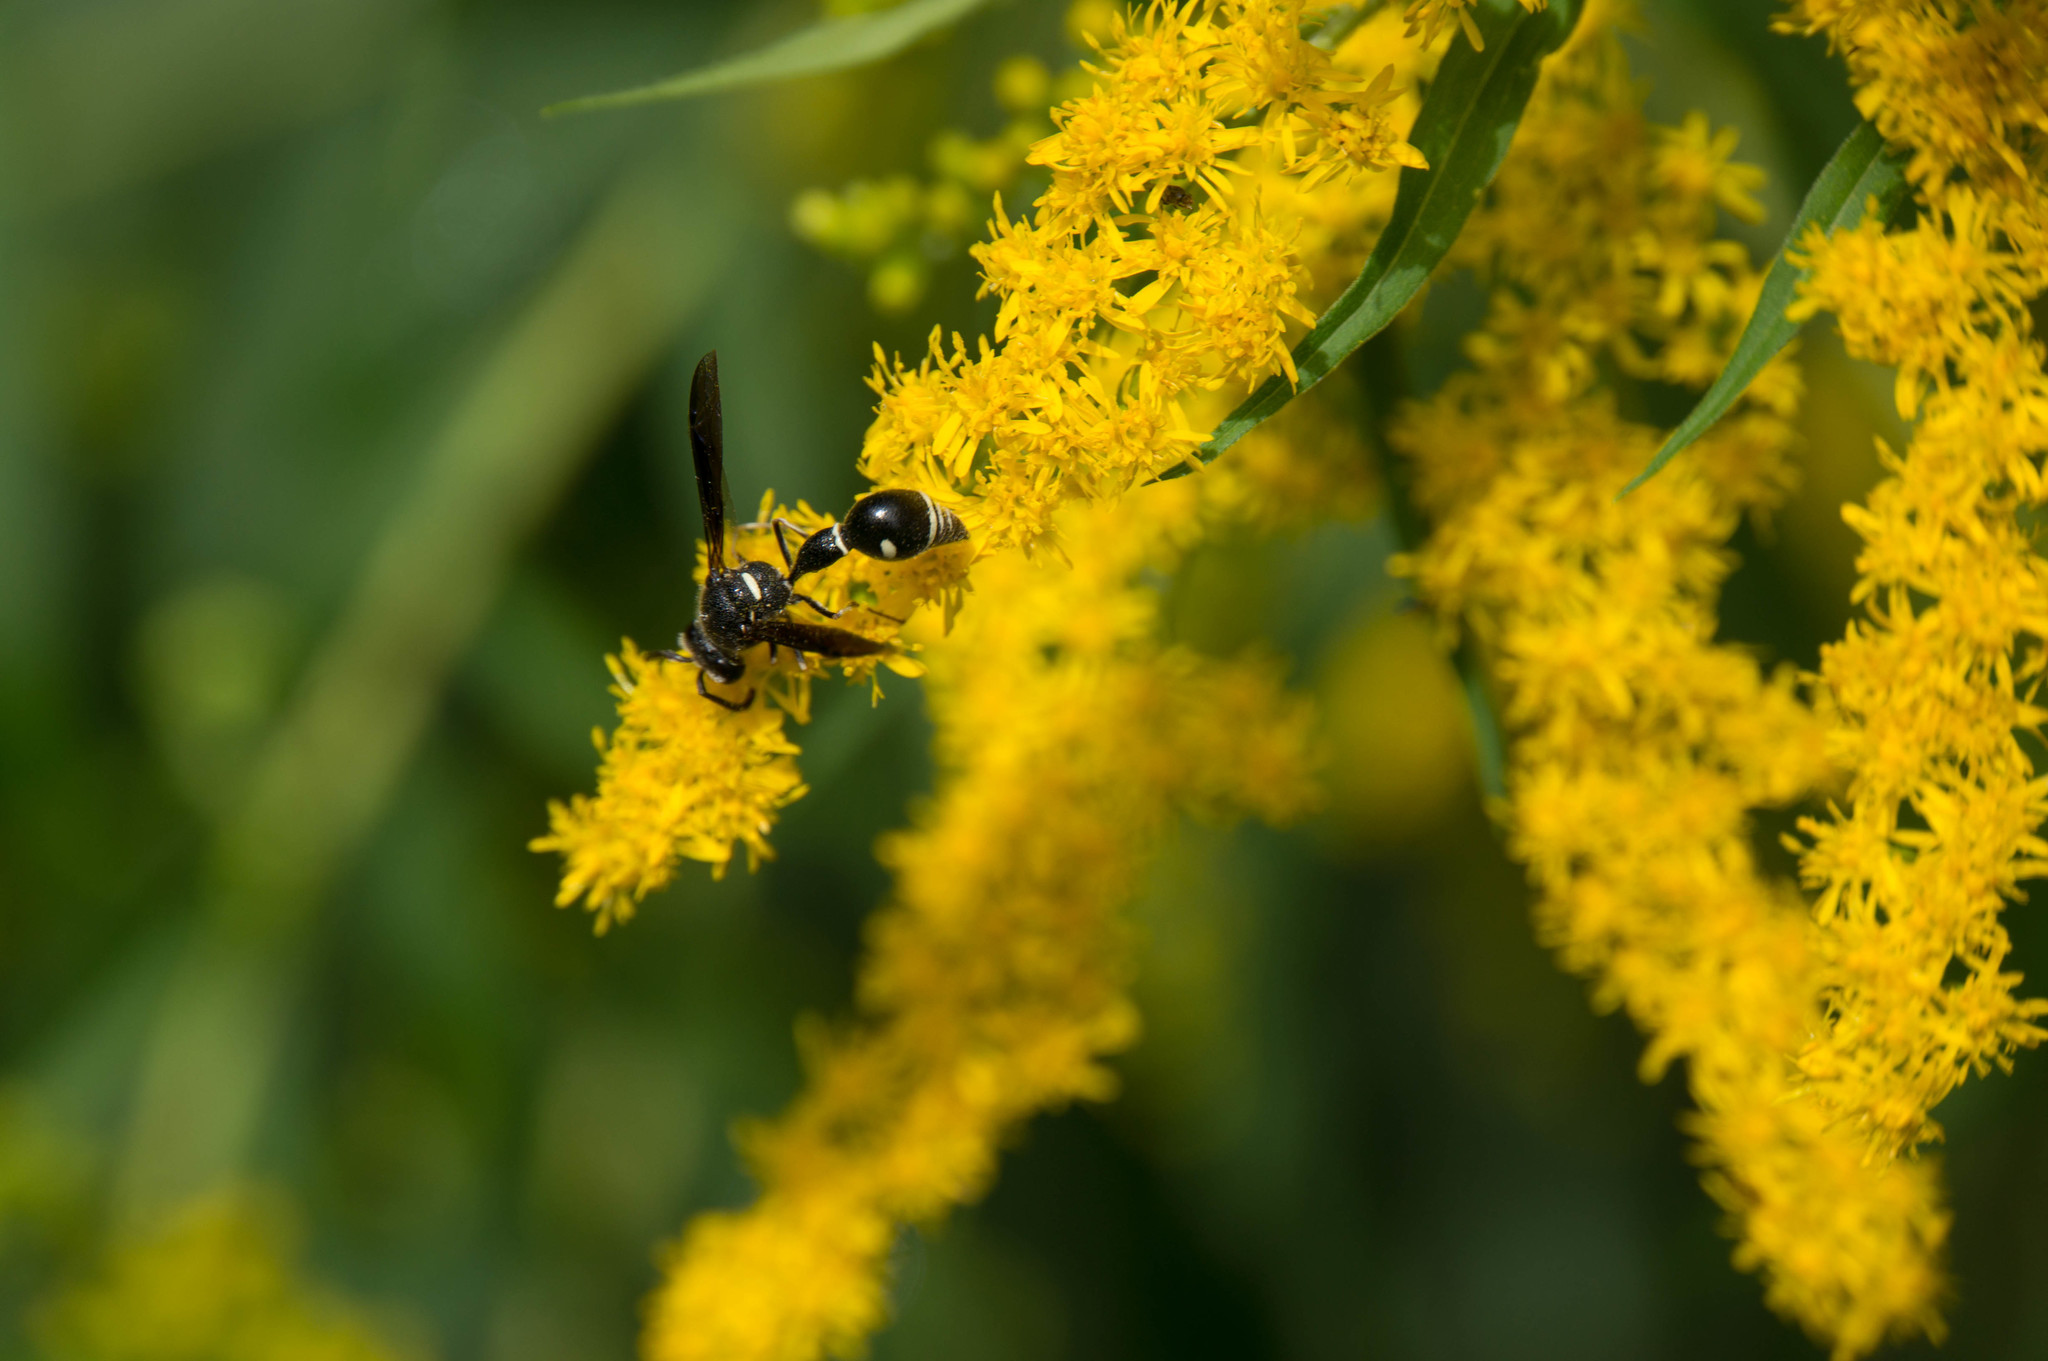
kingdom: Animalia
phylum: Arthropoda
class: Insecta
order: Hymenoptera
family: Vespidae
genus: Eumenes
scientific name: Eumenes fraternus
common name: Fraternal potter wasp
